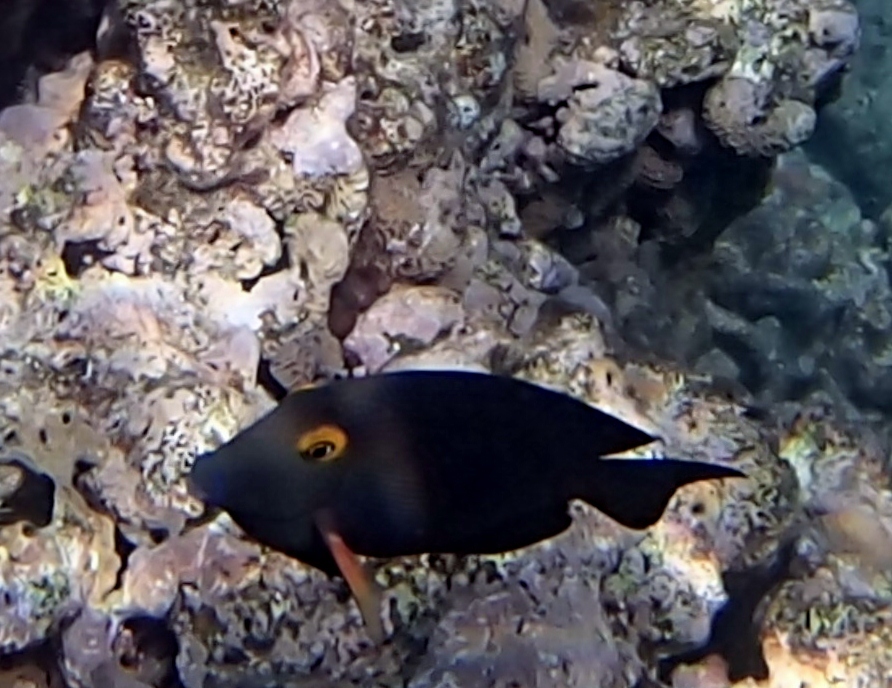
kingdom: Animalia
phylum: Chordata
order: Perciformes
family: Acanthuridae
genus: Ctenochaetus
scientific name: Ctenochaetus strigosus
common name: Bristletoothed surgeonfish
